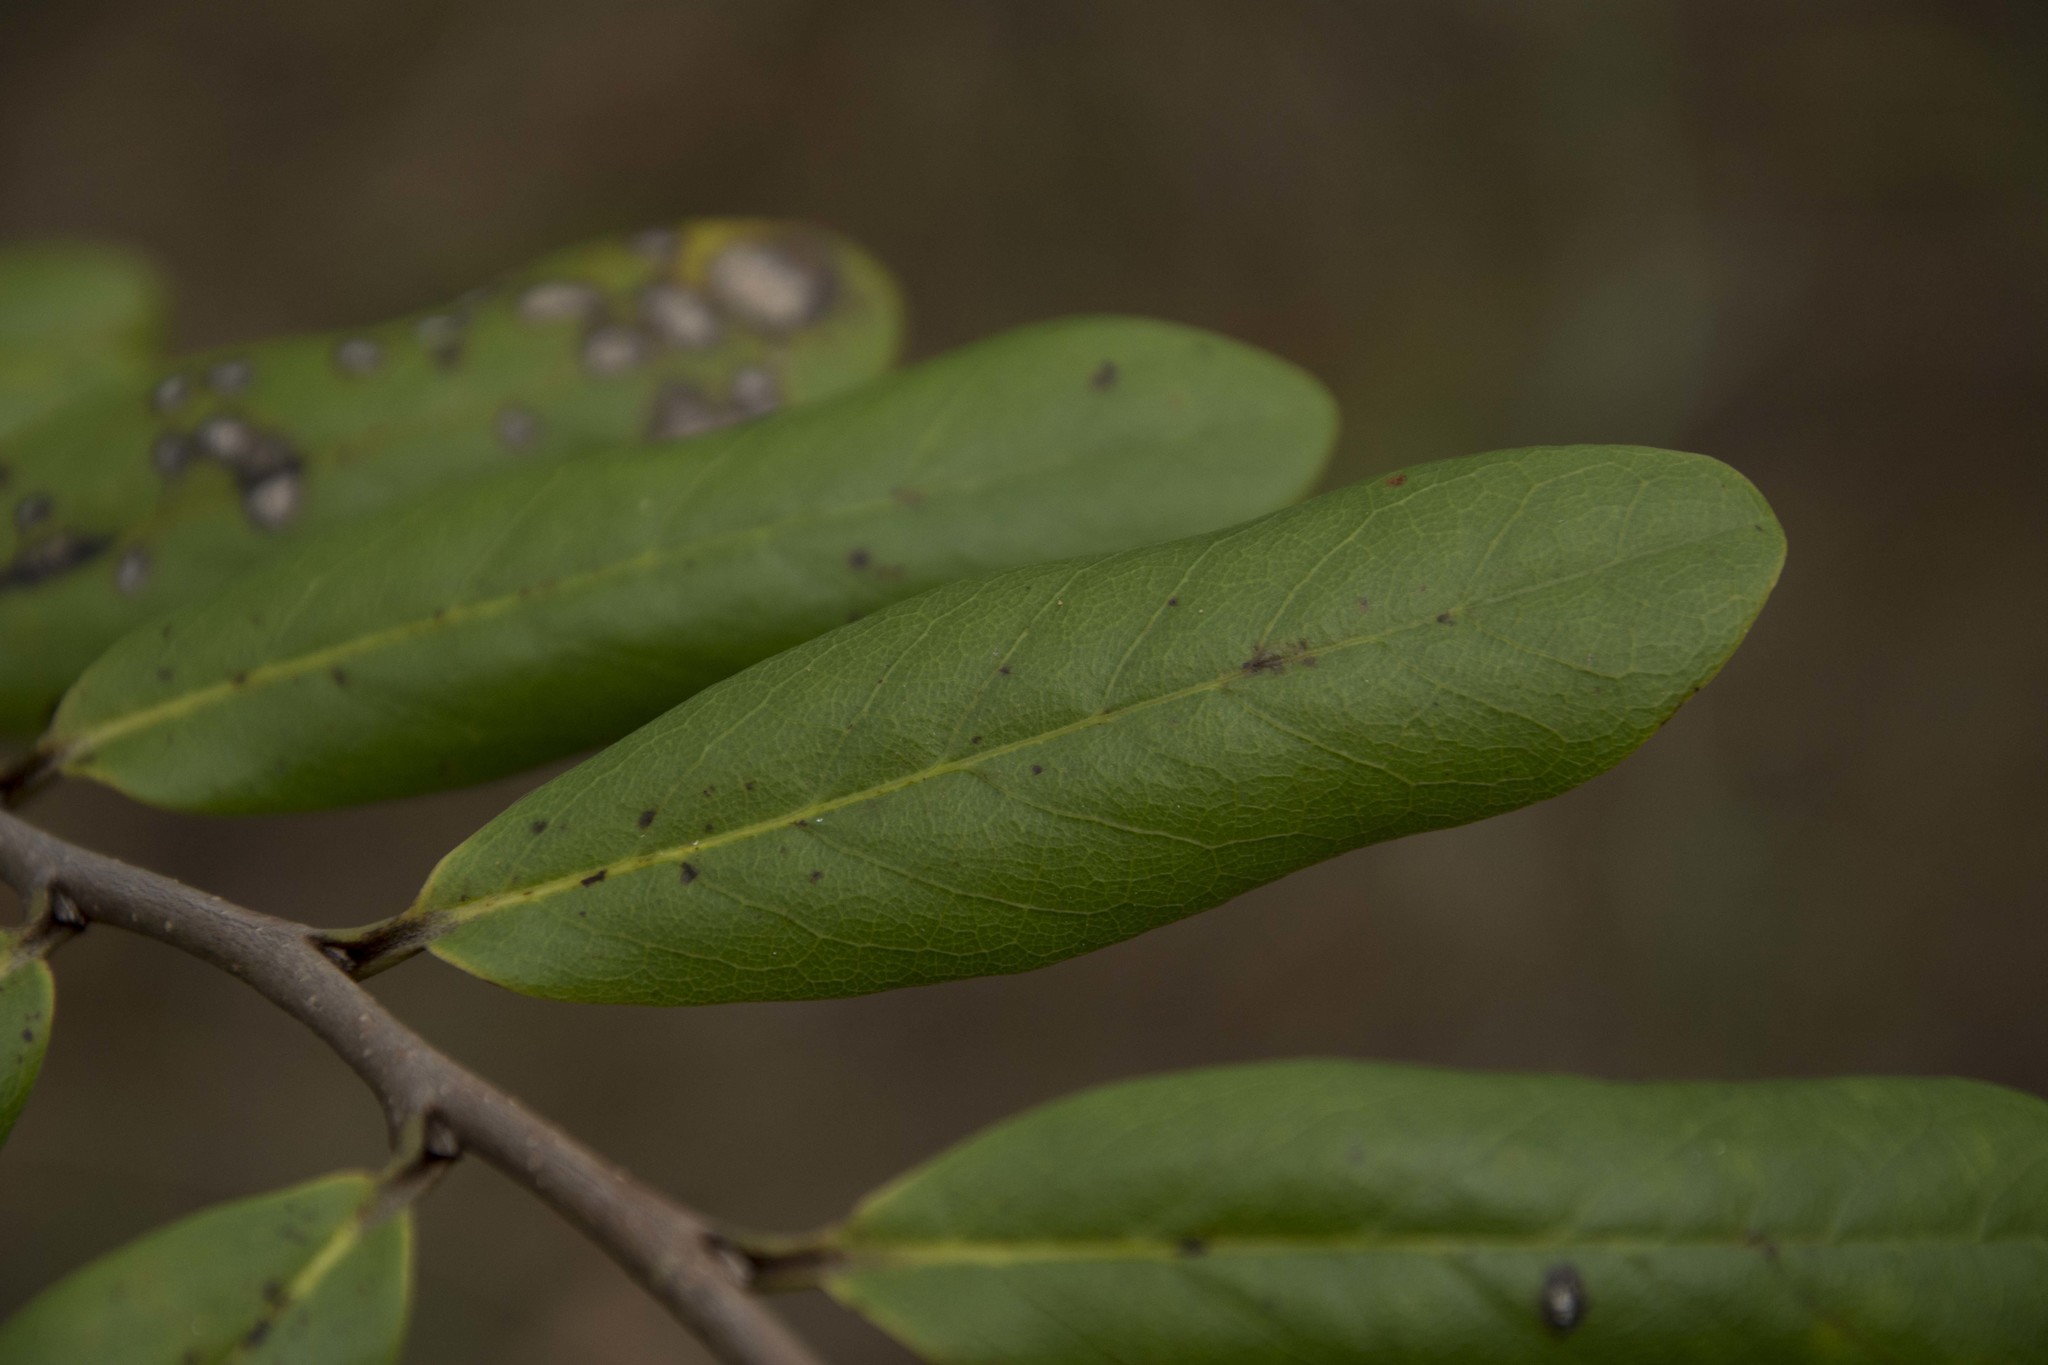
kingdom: Plantae
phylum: Tracheophyta
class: Magnoliopsida
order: Magnoliales
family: Annonaceae
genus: Asimina
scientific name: Asimina obovata
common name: Flag pawpaw
